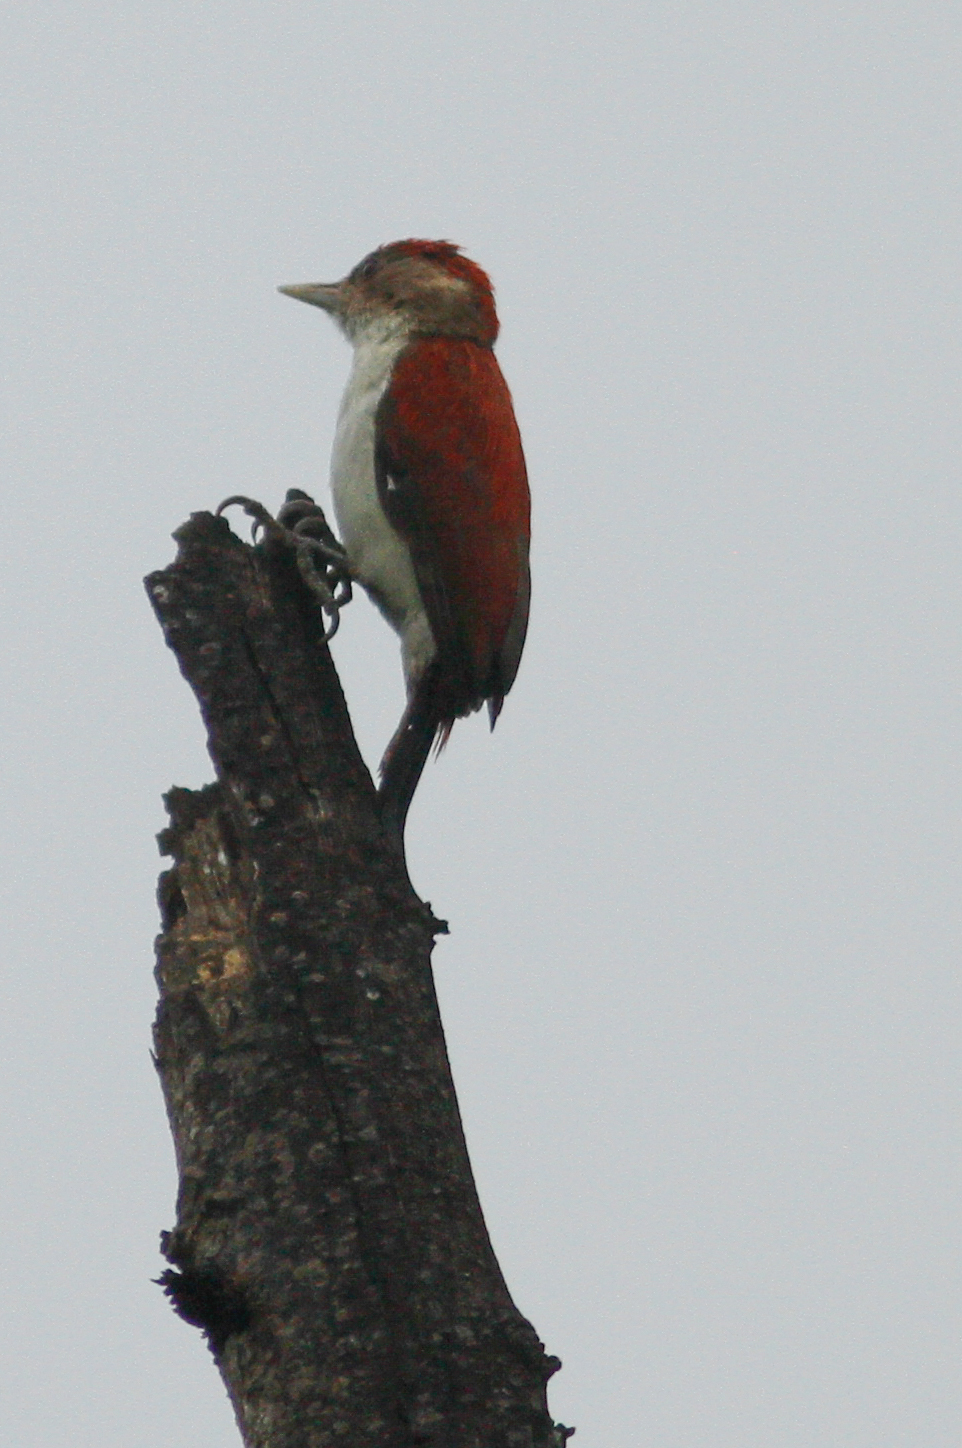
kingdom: Animalia
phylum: Chordata
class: Aves
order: Piciformes
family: Picidae
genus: Veniliornis
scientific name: Veniliornis callonotus
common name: Scarlet-backed woodpecker
